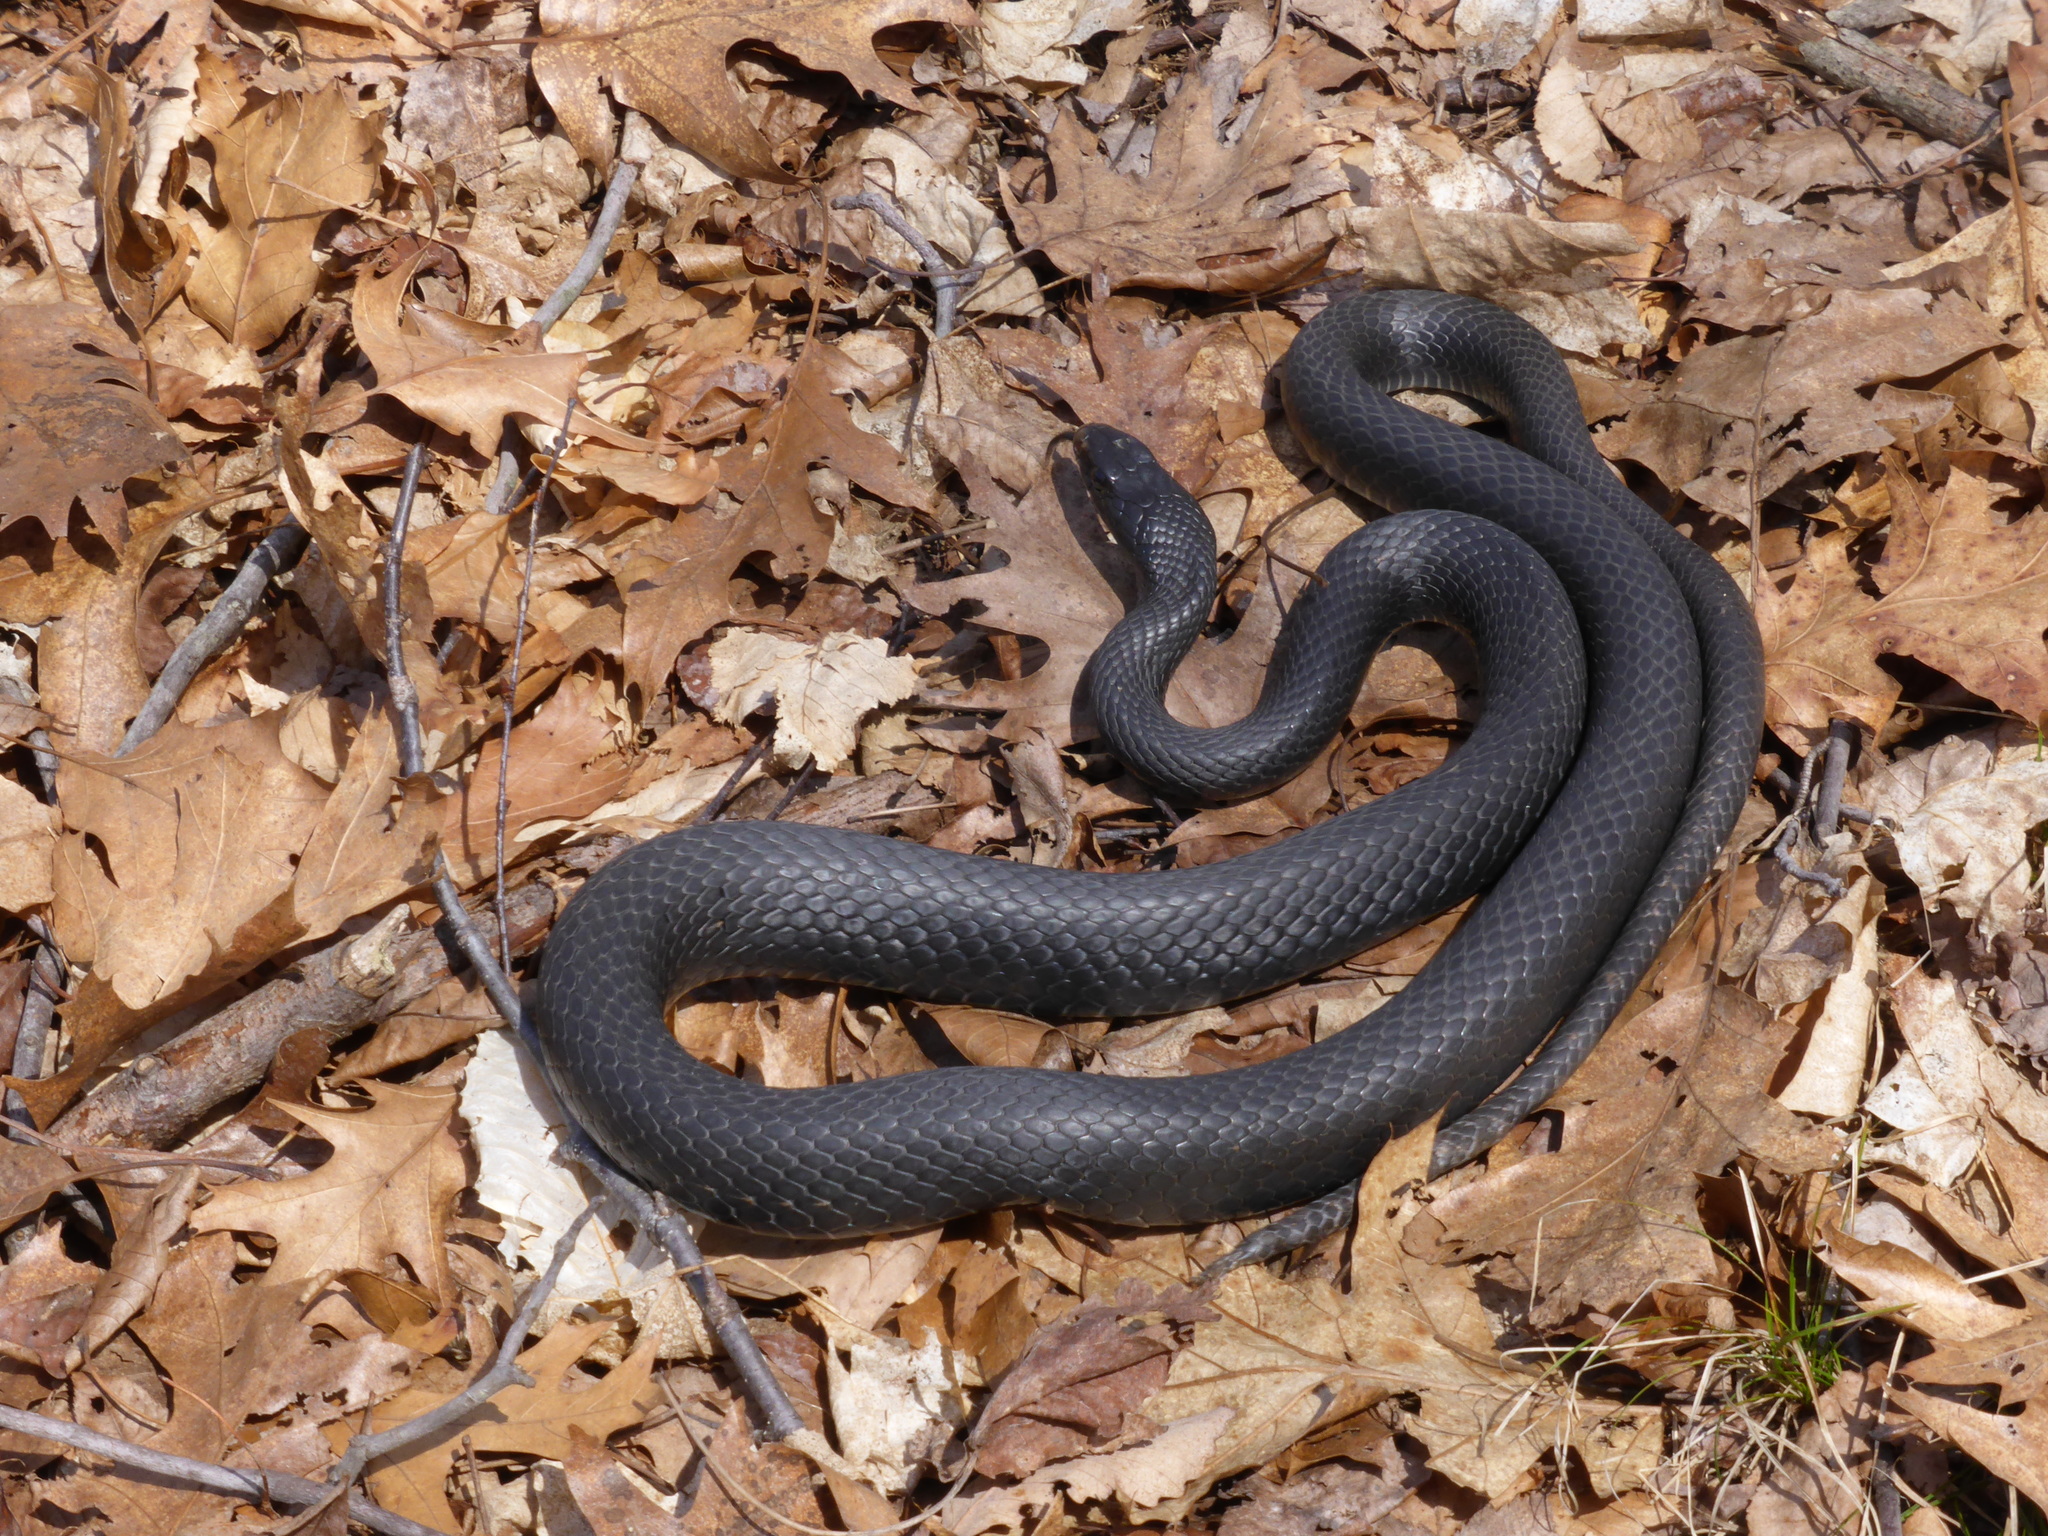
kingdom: Animalia
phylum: Chordata
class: Squamata
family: Colubridae
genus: Coluber
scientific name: Coluber constrictor
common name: Eastern racer
